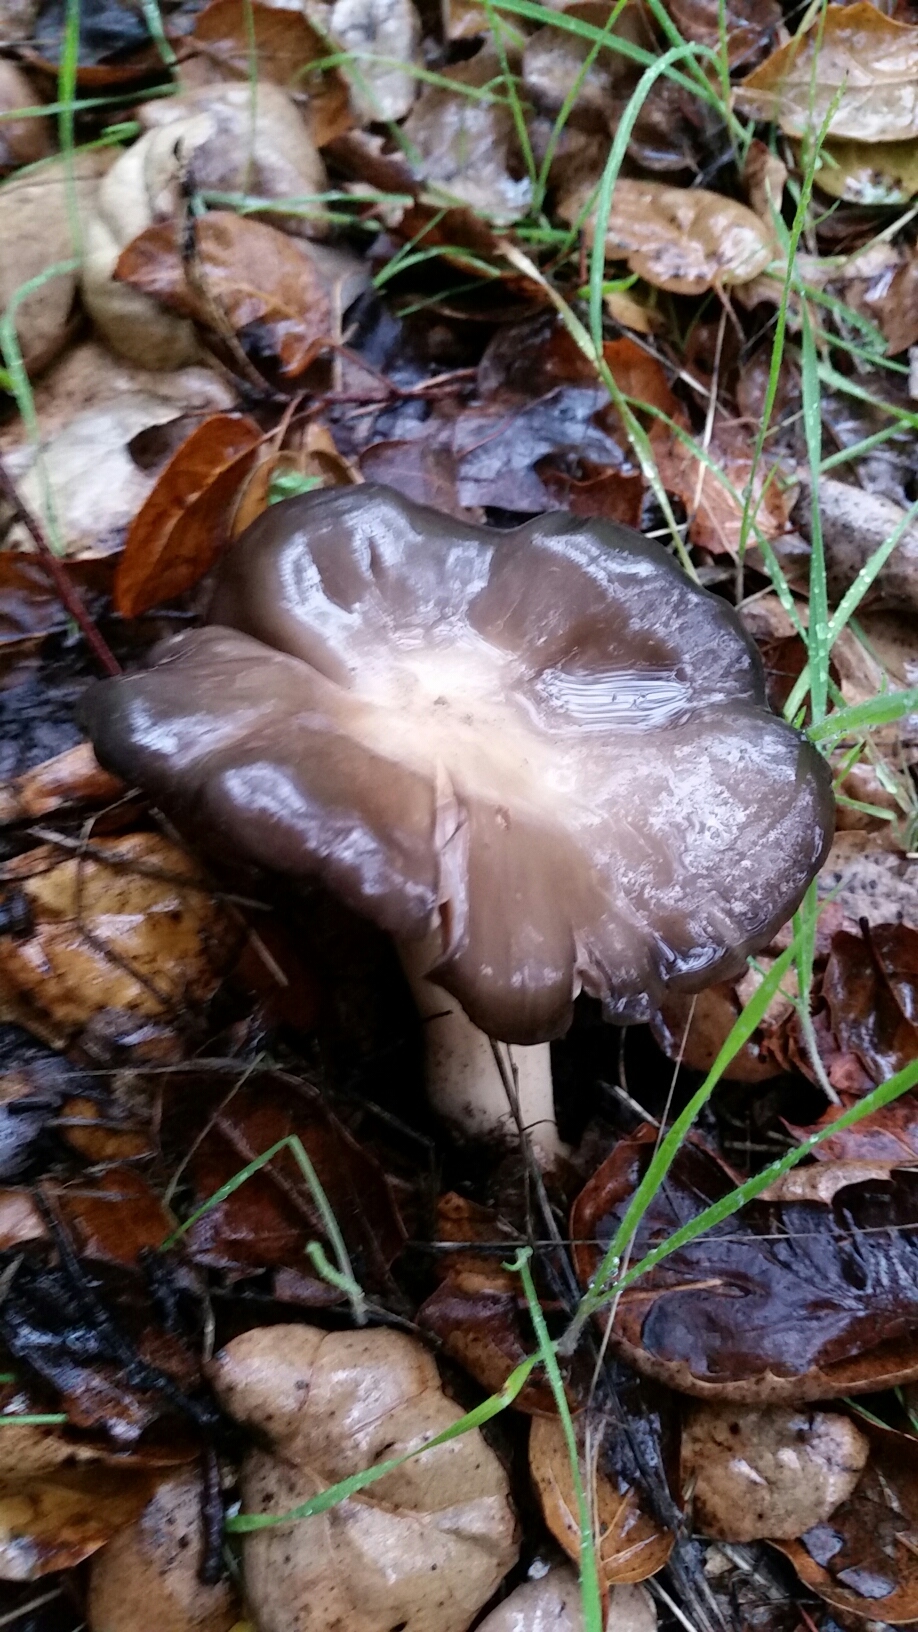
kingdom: Fungi
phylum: Basidiomycota
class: Agaricomycetes
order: Agaricales
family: Entolomataceae
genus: Entoloma
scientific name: Entoloma cinereolamellatum
